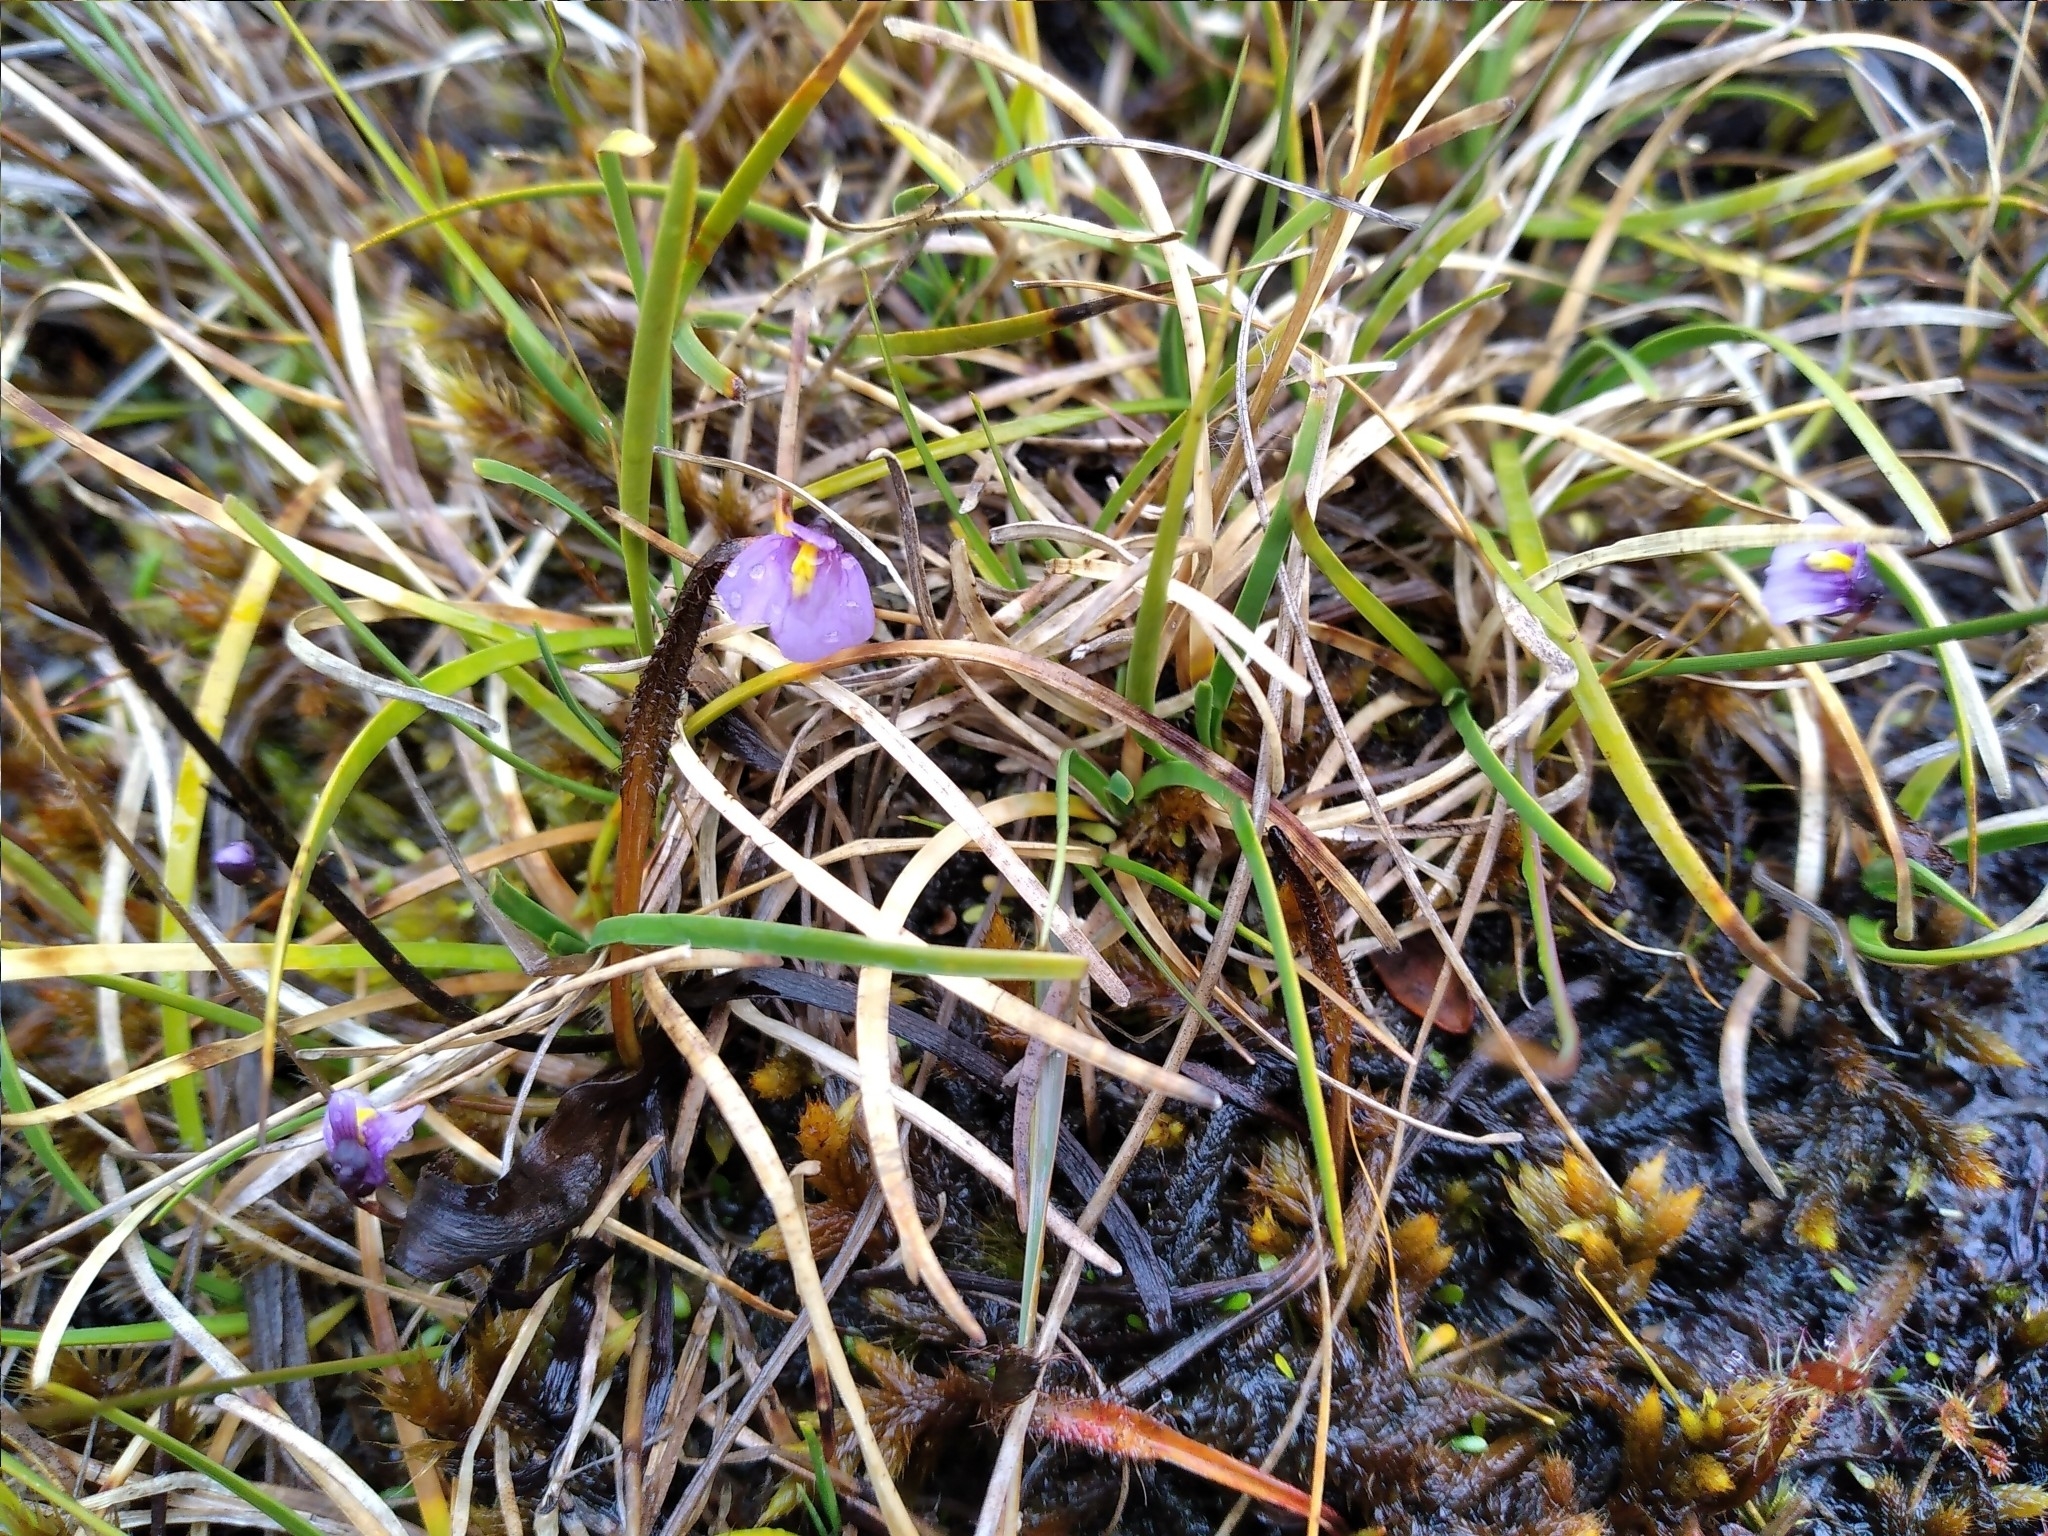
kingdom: Plantae
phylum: Tracheophyta
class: Magnoliopsida
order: Lamiales
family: Lentibulariaceae
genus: Utricularia
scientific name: Utricularia dichotoma
